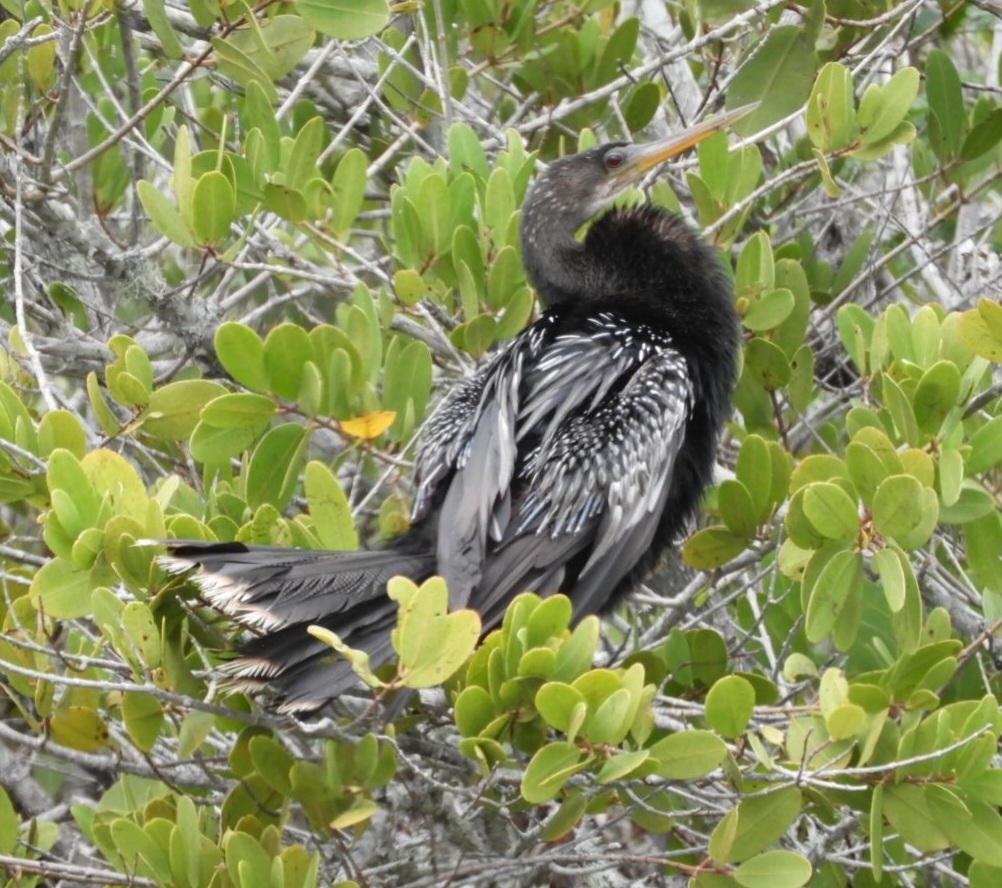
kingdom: Animalia
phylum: Chordata
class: Aves
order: Suliformes
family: Anhingidae
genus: Anhinga
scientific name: Anhinga anhinga
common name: Anhinga
